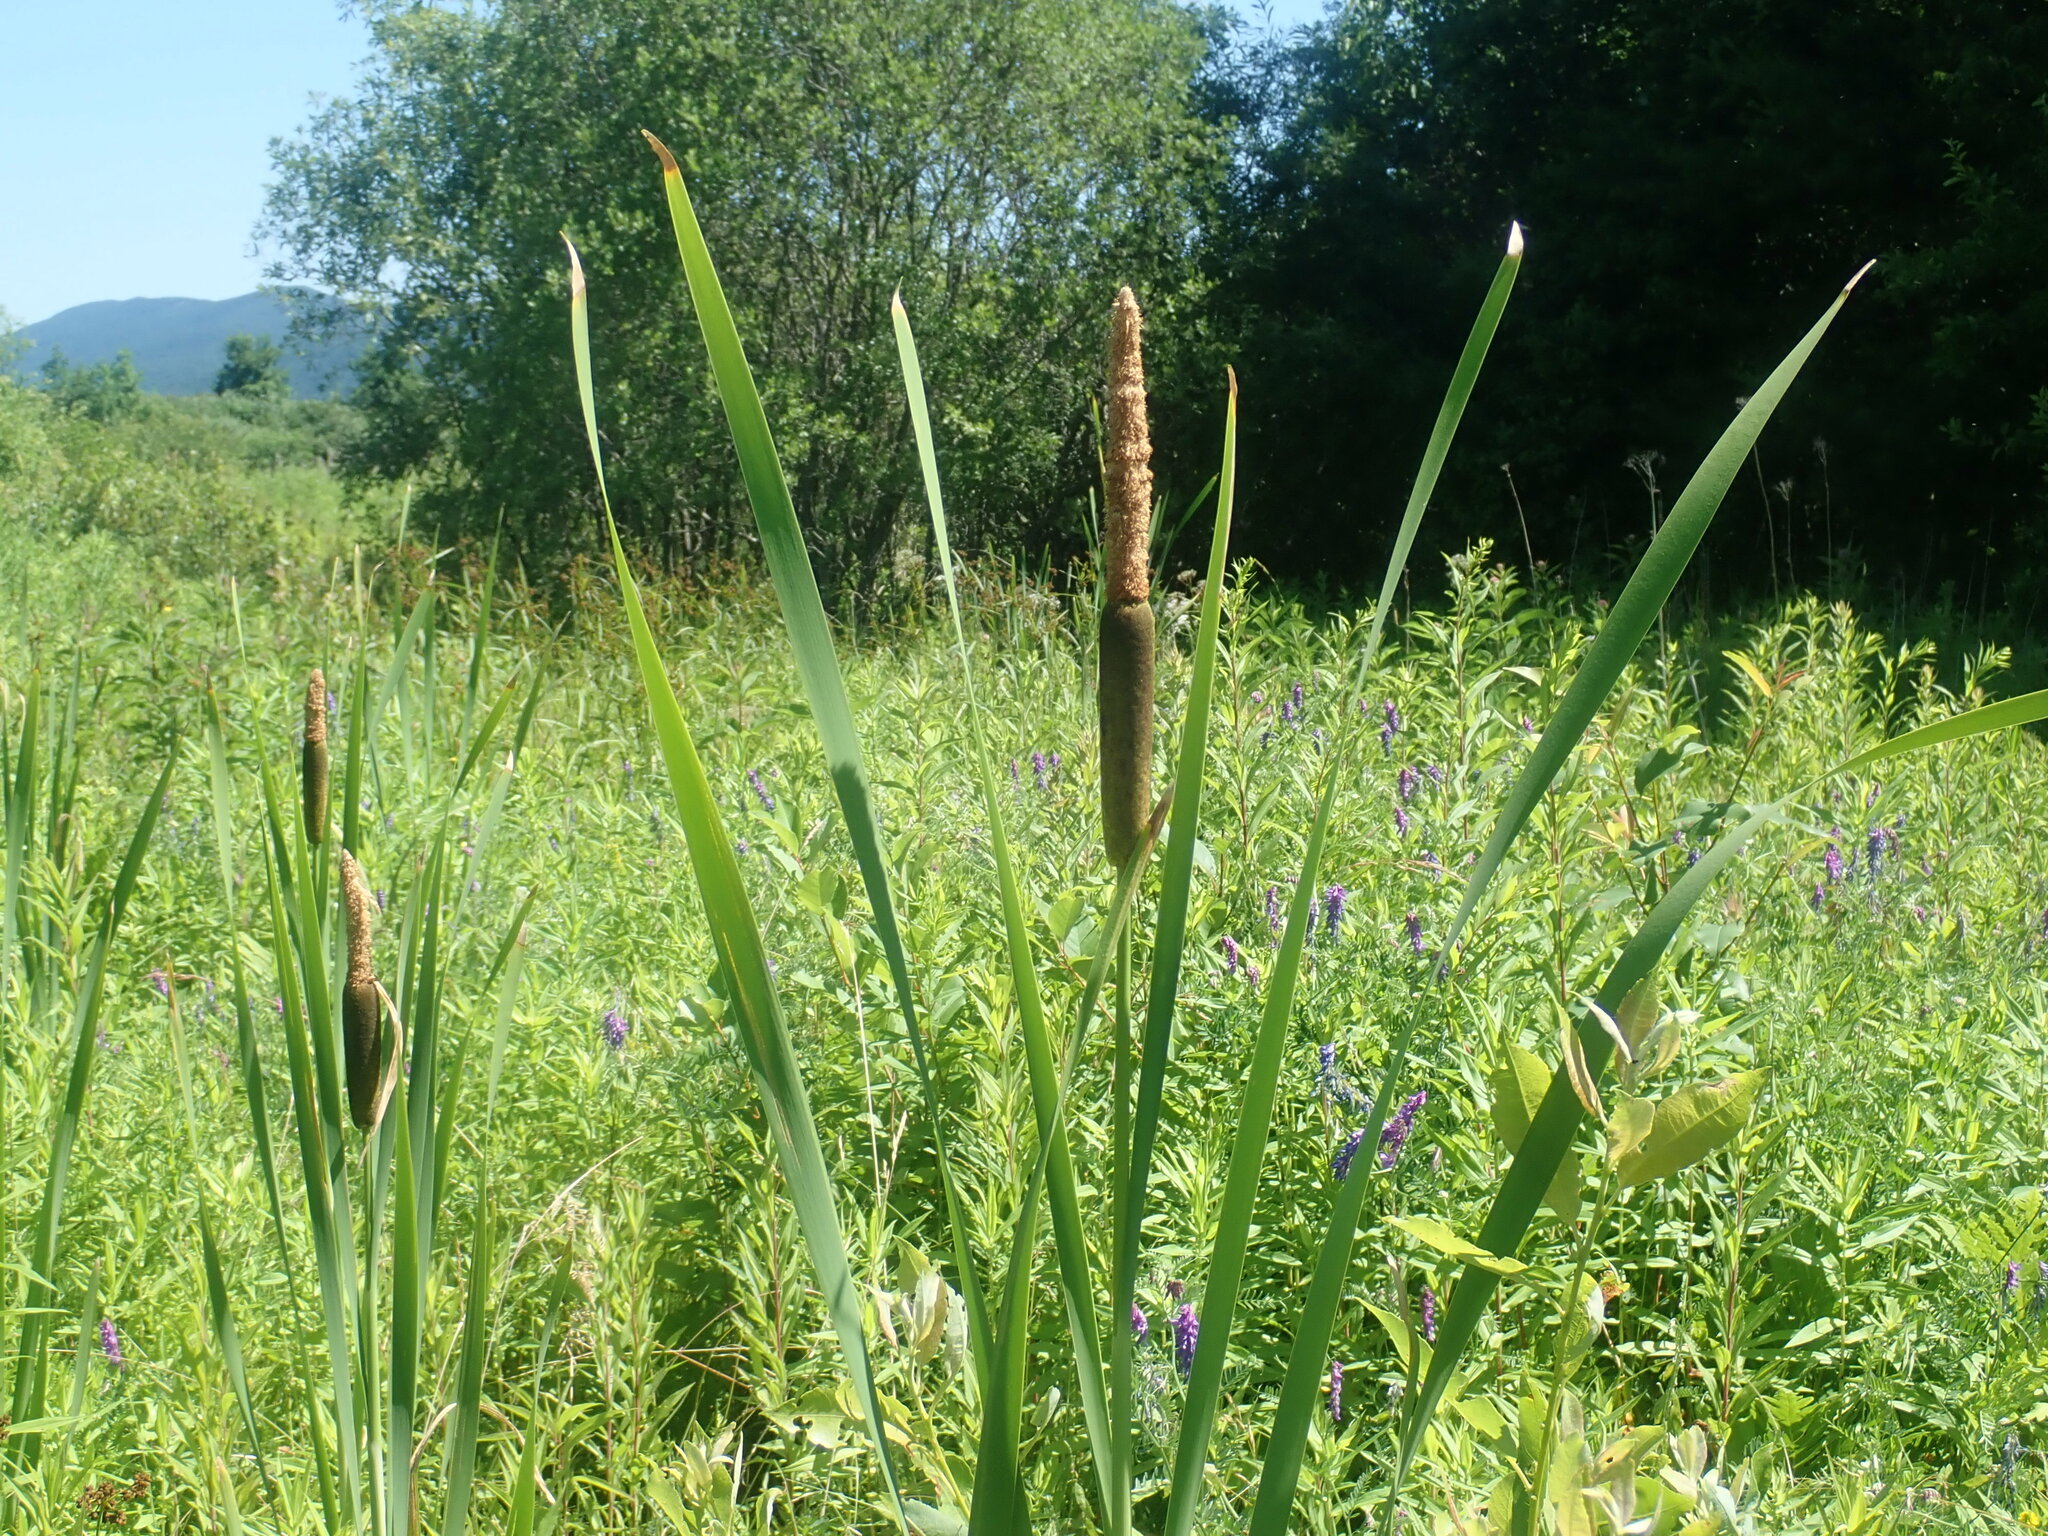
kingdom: Plantae
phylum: Tracheophyta
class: Liliopsida
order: Poales
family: Typhaceae
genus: Typha
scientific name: Typha latifolia
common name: Broadleaf cattail
